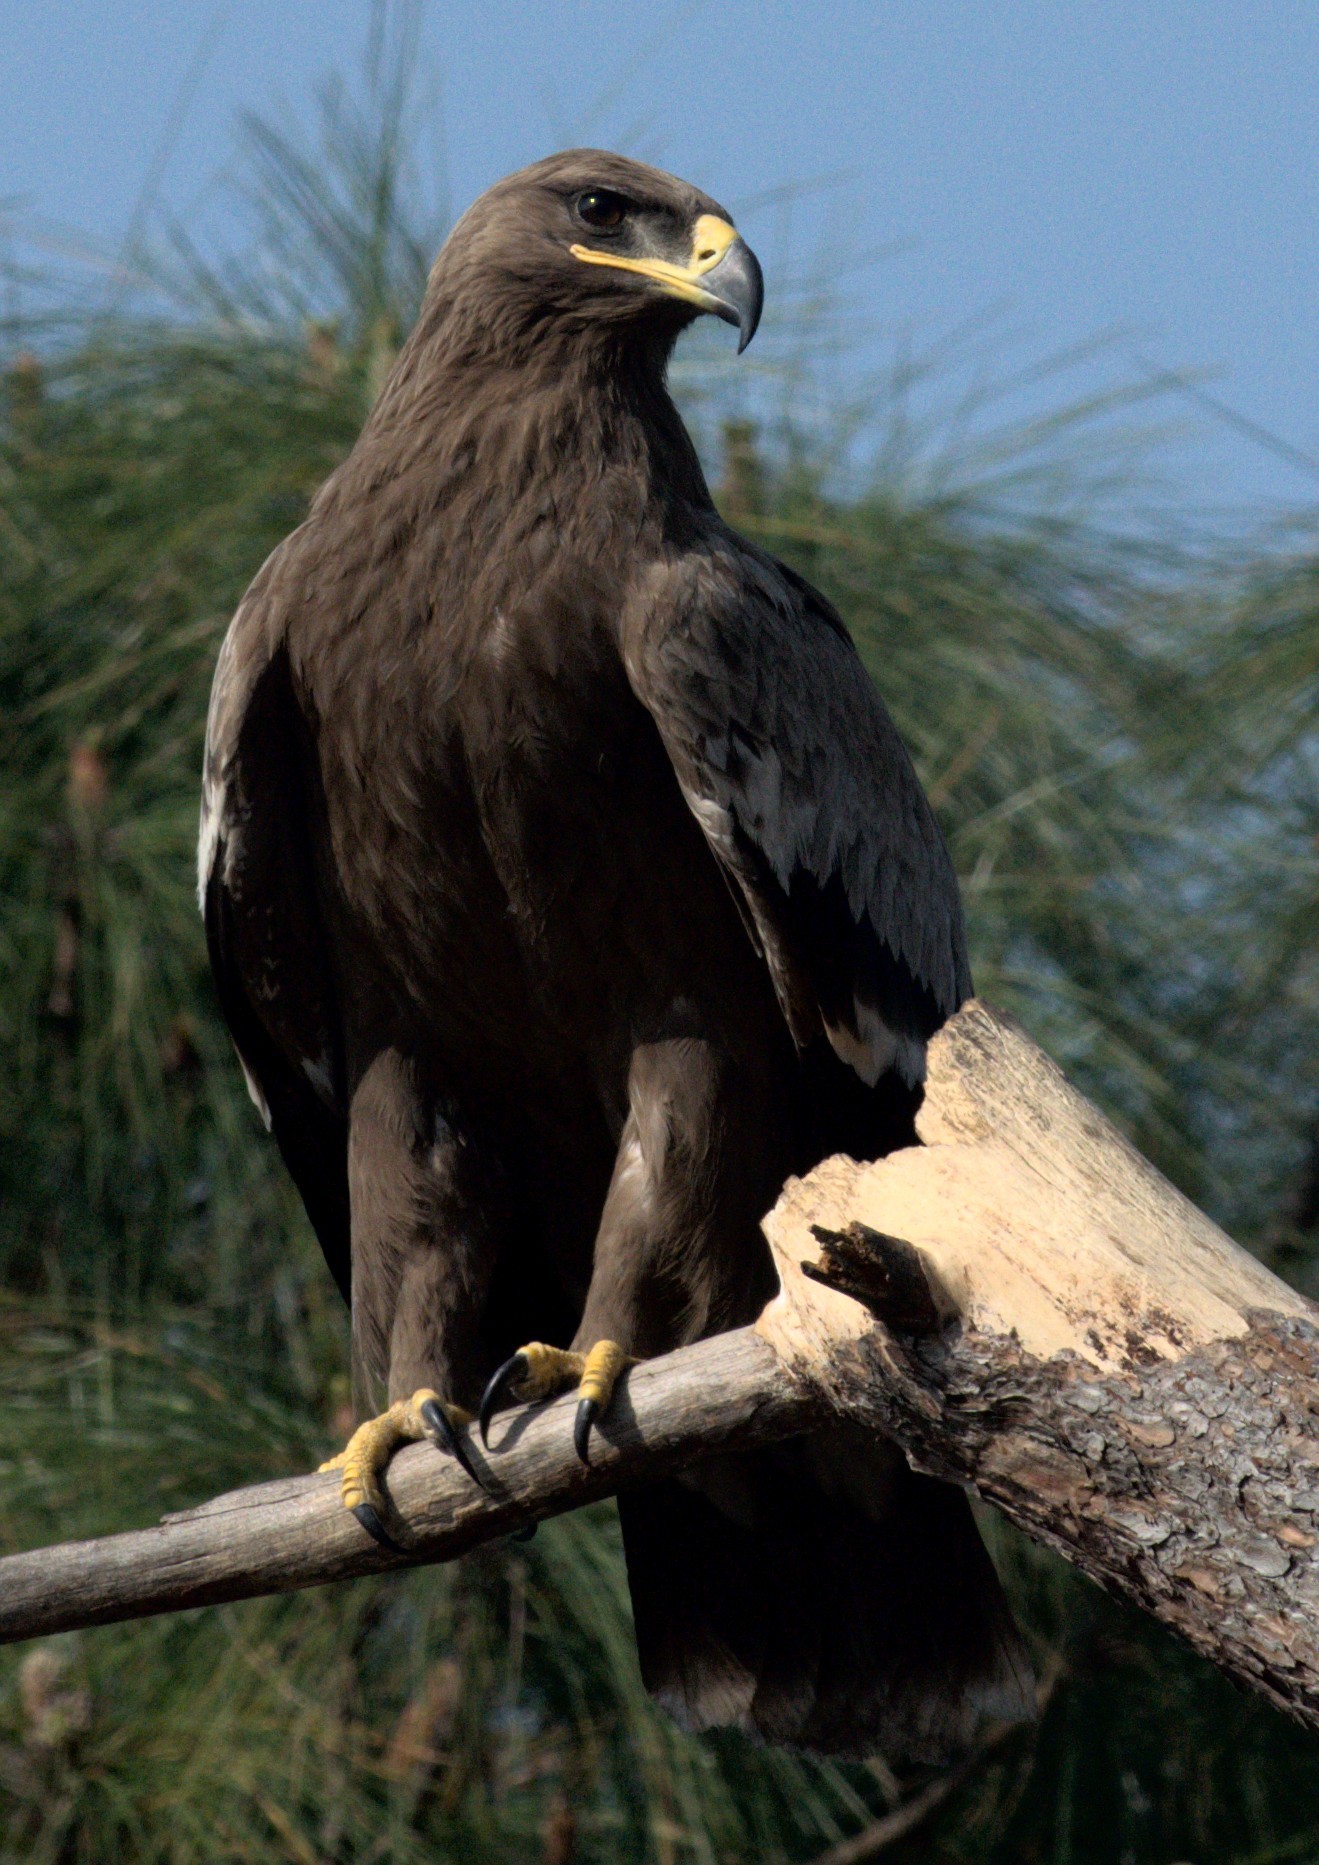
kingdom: Animalia
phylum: Chordata
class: Aves
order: Accipitriformes
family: Accipitridae
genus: Aquila
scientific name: Aquila nipalensis
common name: Steppe eagle
